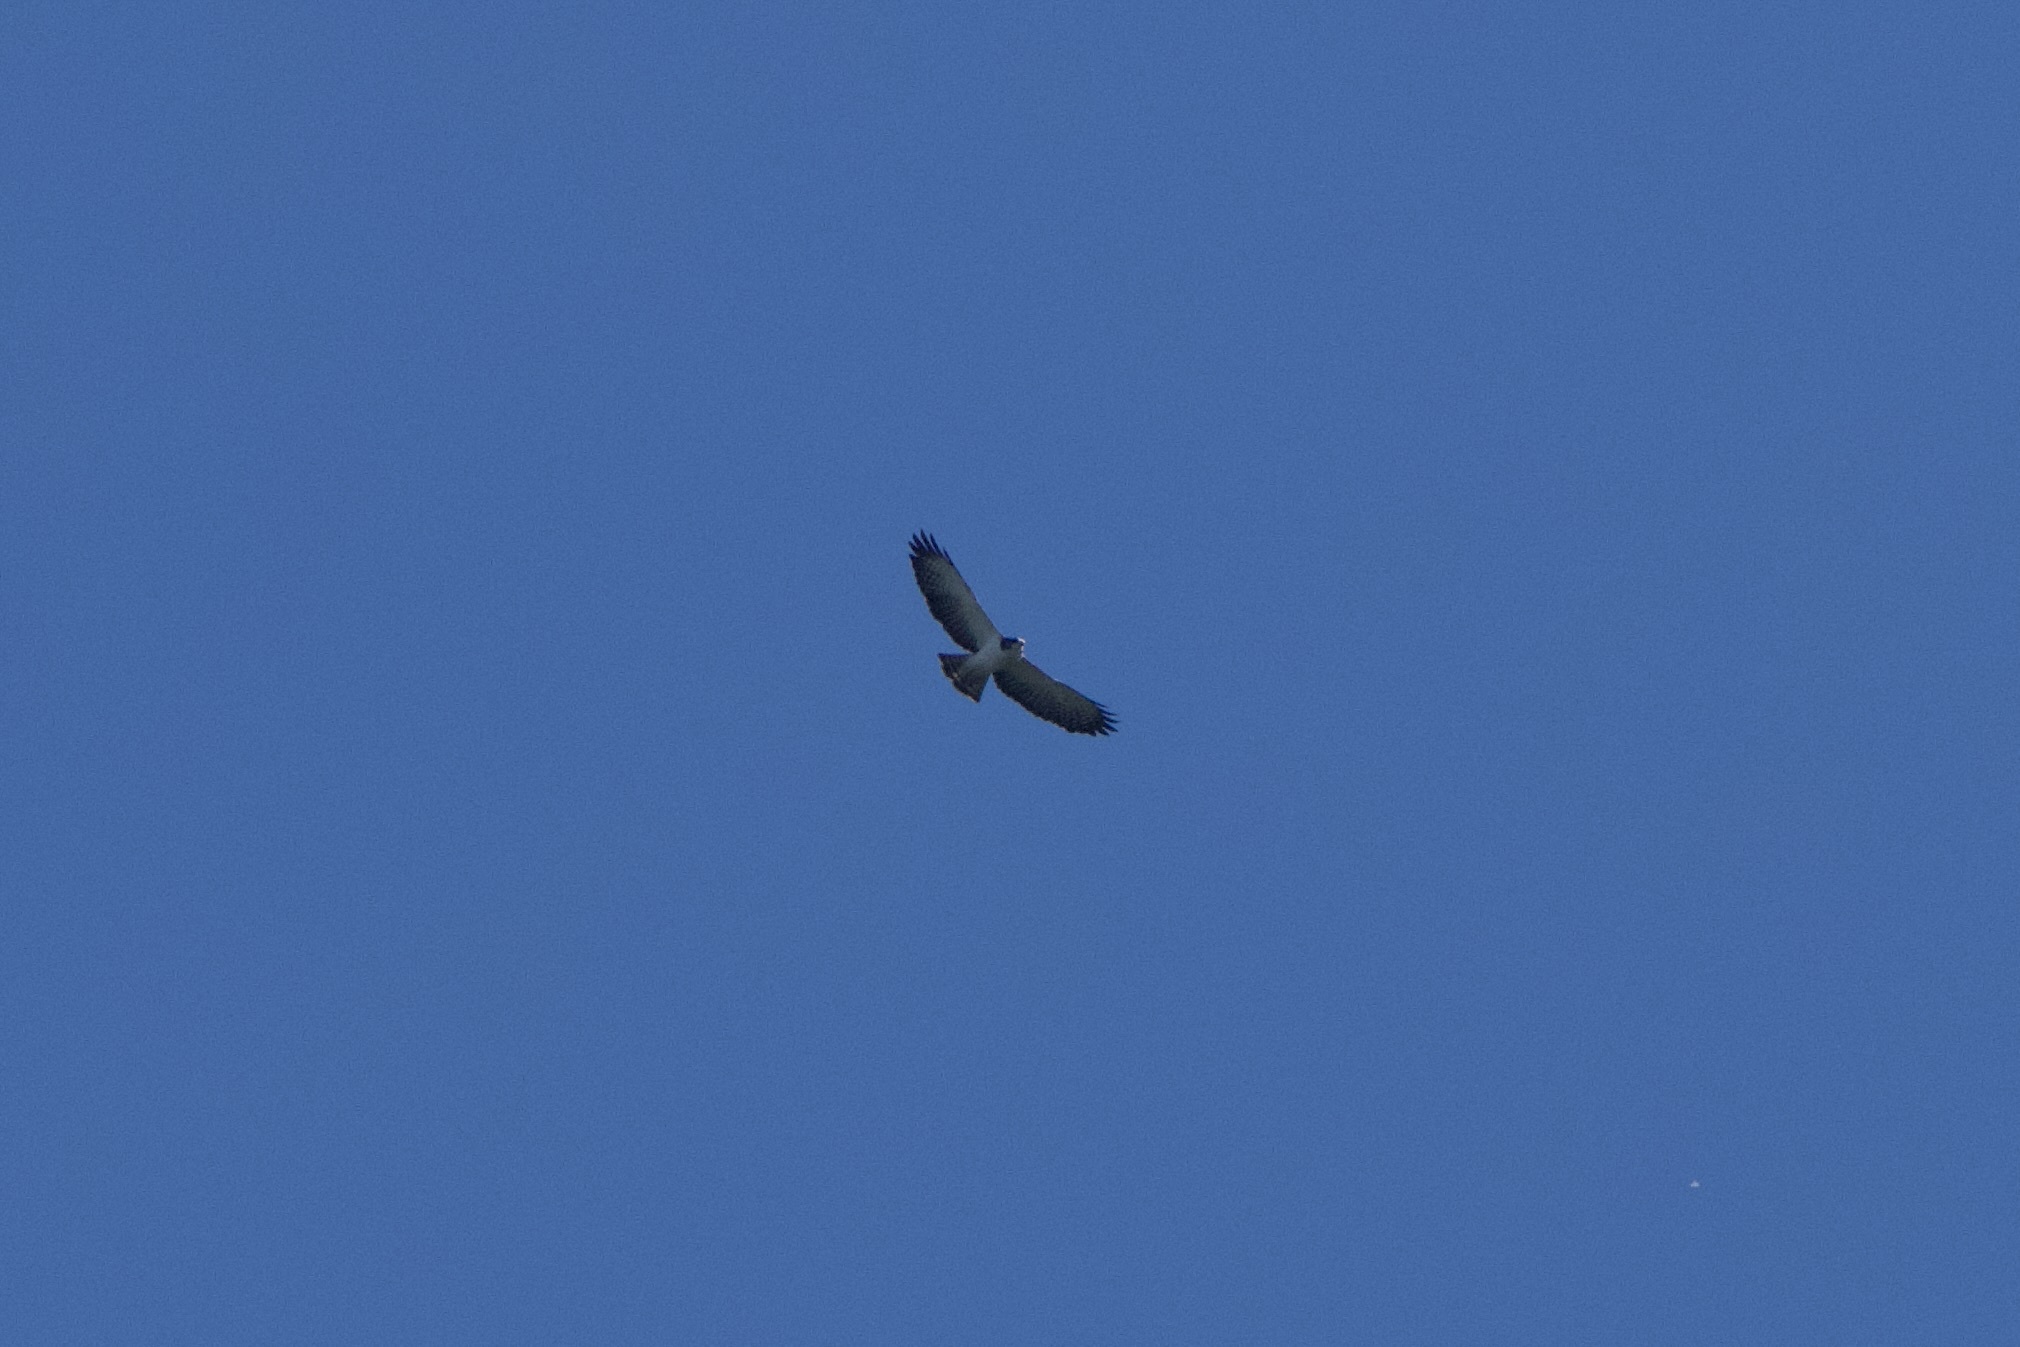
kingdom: Animalia
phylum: Chordata
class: Aves
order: Accipitriformes
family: Accipitridae
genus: Buteo
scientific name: Buteo brachyurus
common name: Short-tailed hawk
